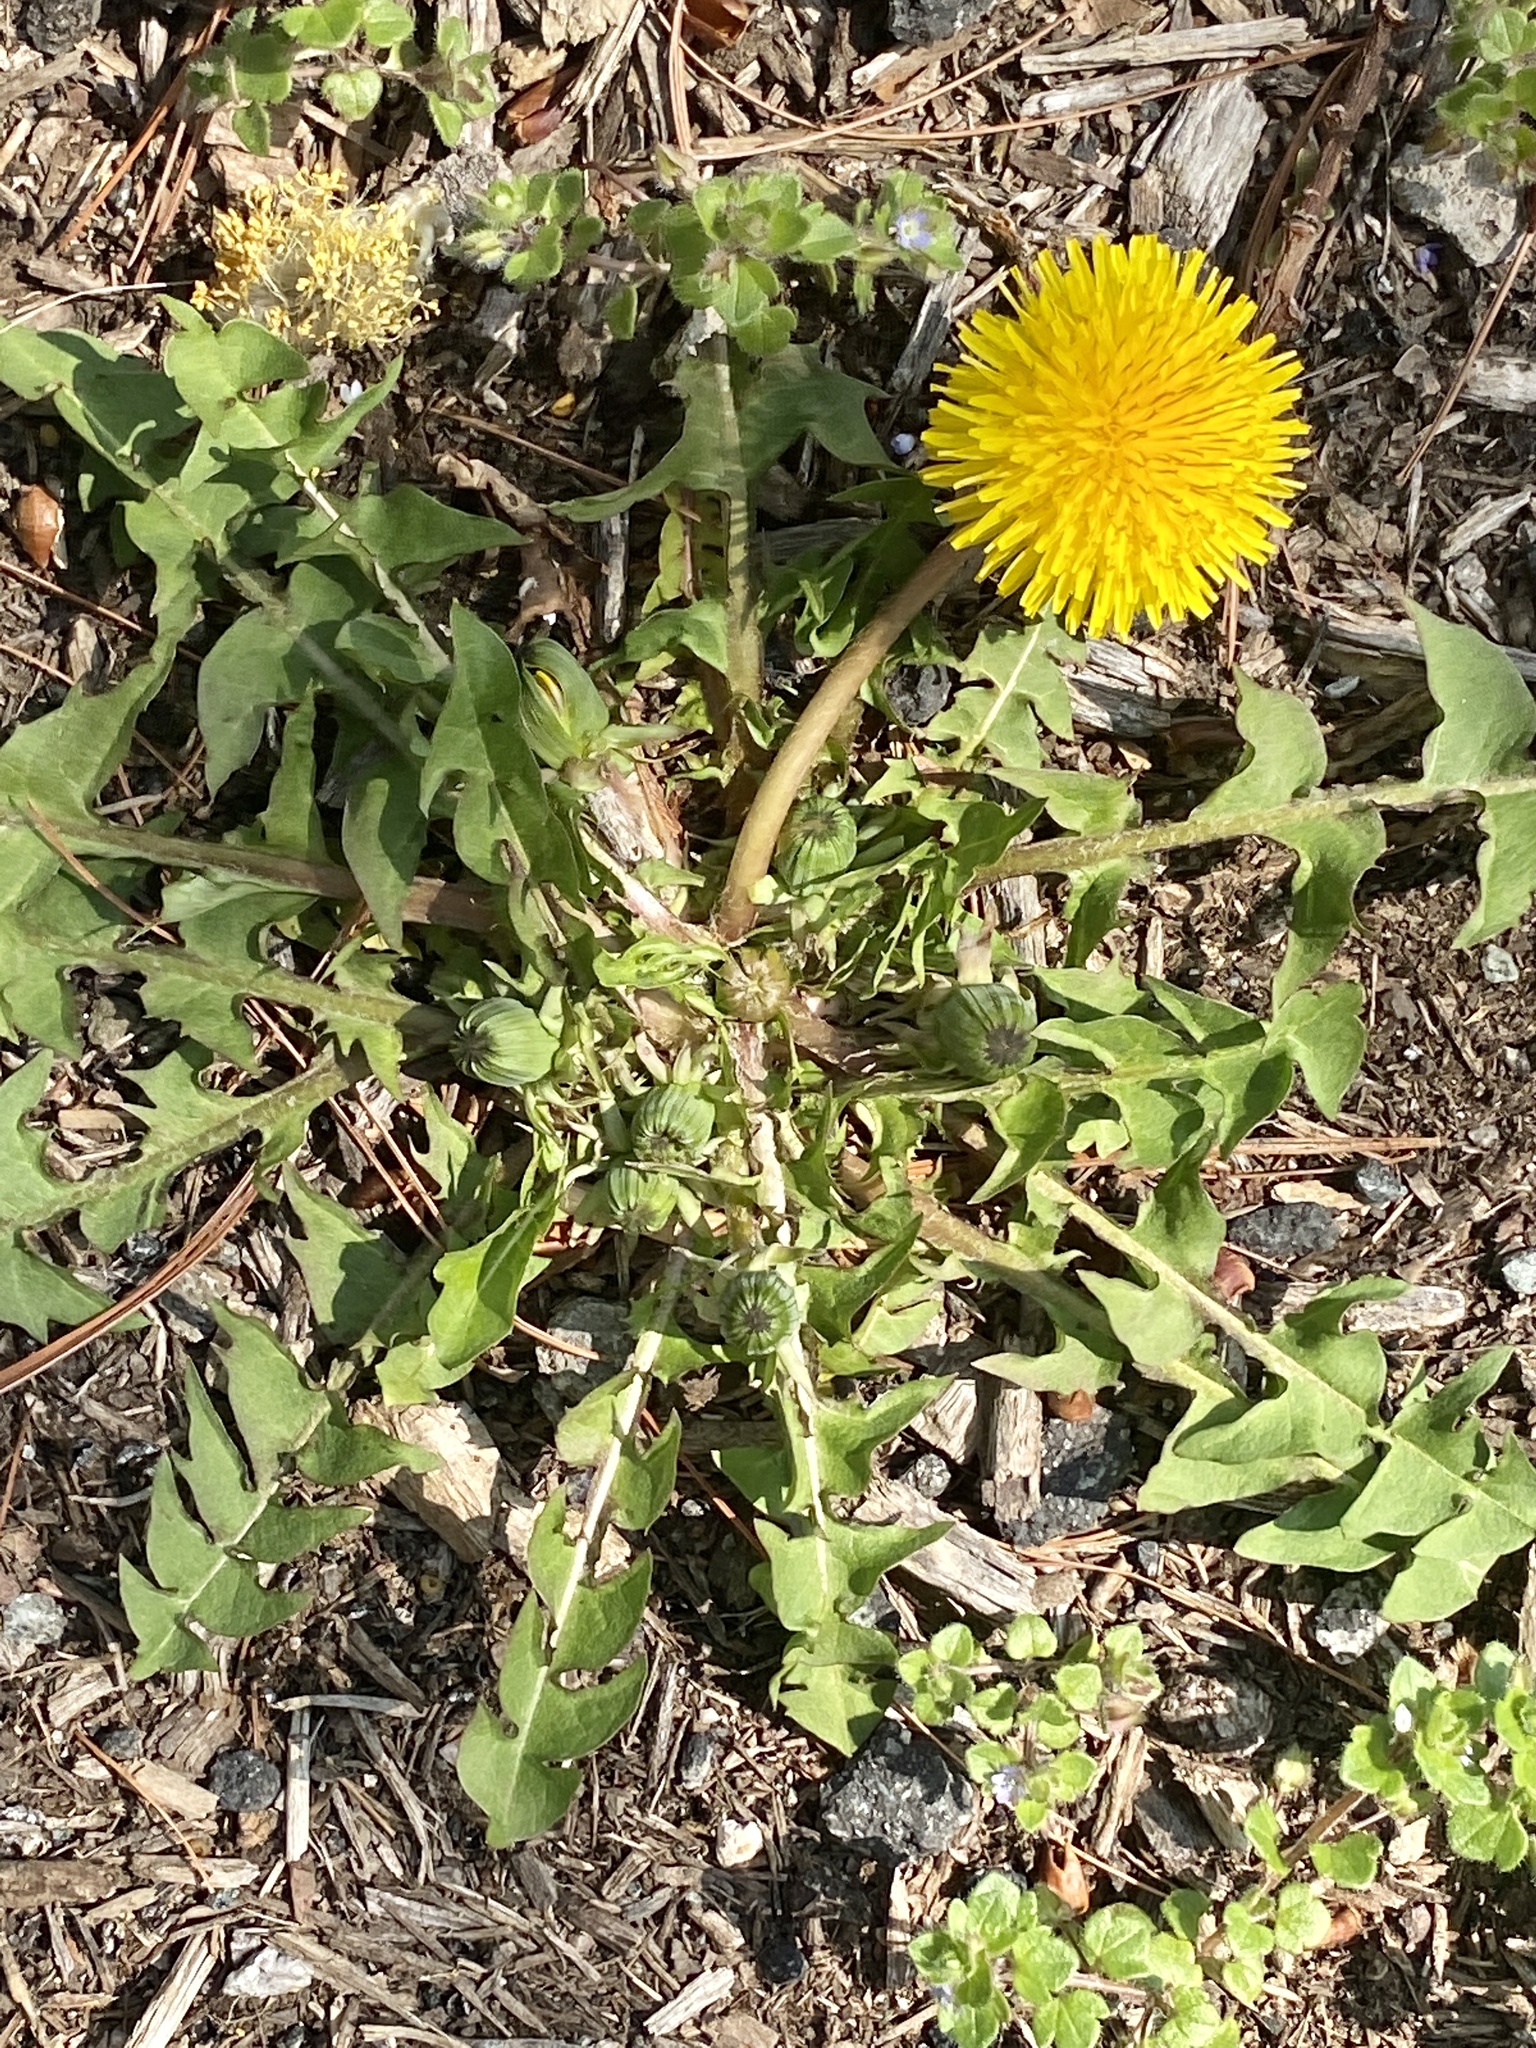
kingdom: Plantae
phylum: Tracheophyta
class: Magnoliopsida
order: Asterales
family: Asteraceae
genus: Taraxacum
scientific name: Taraxacum
